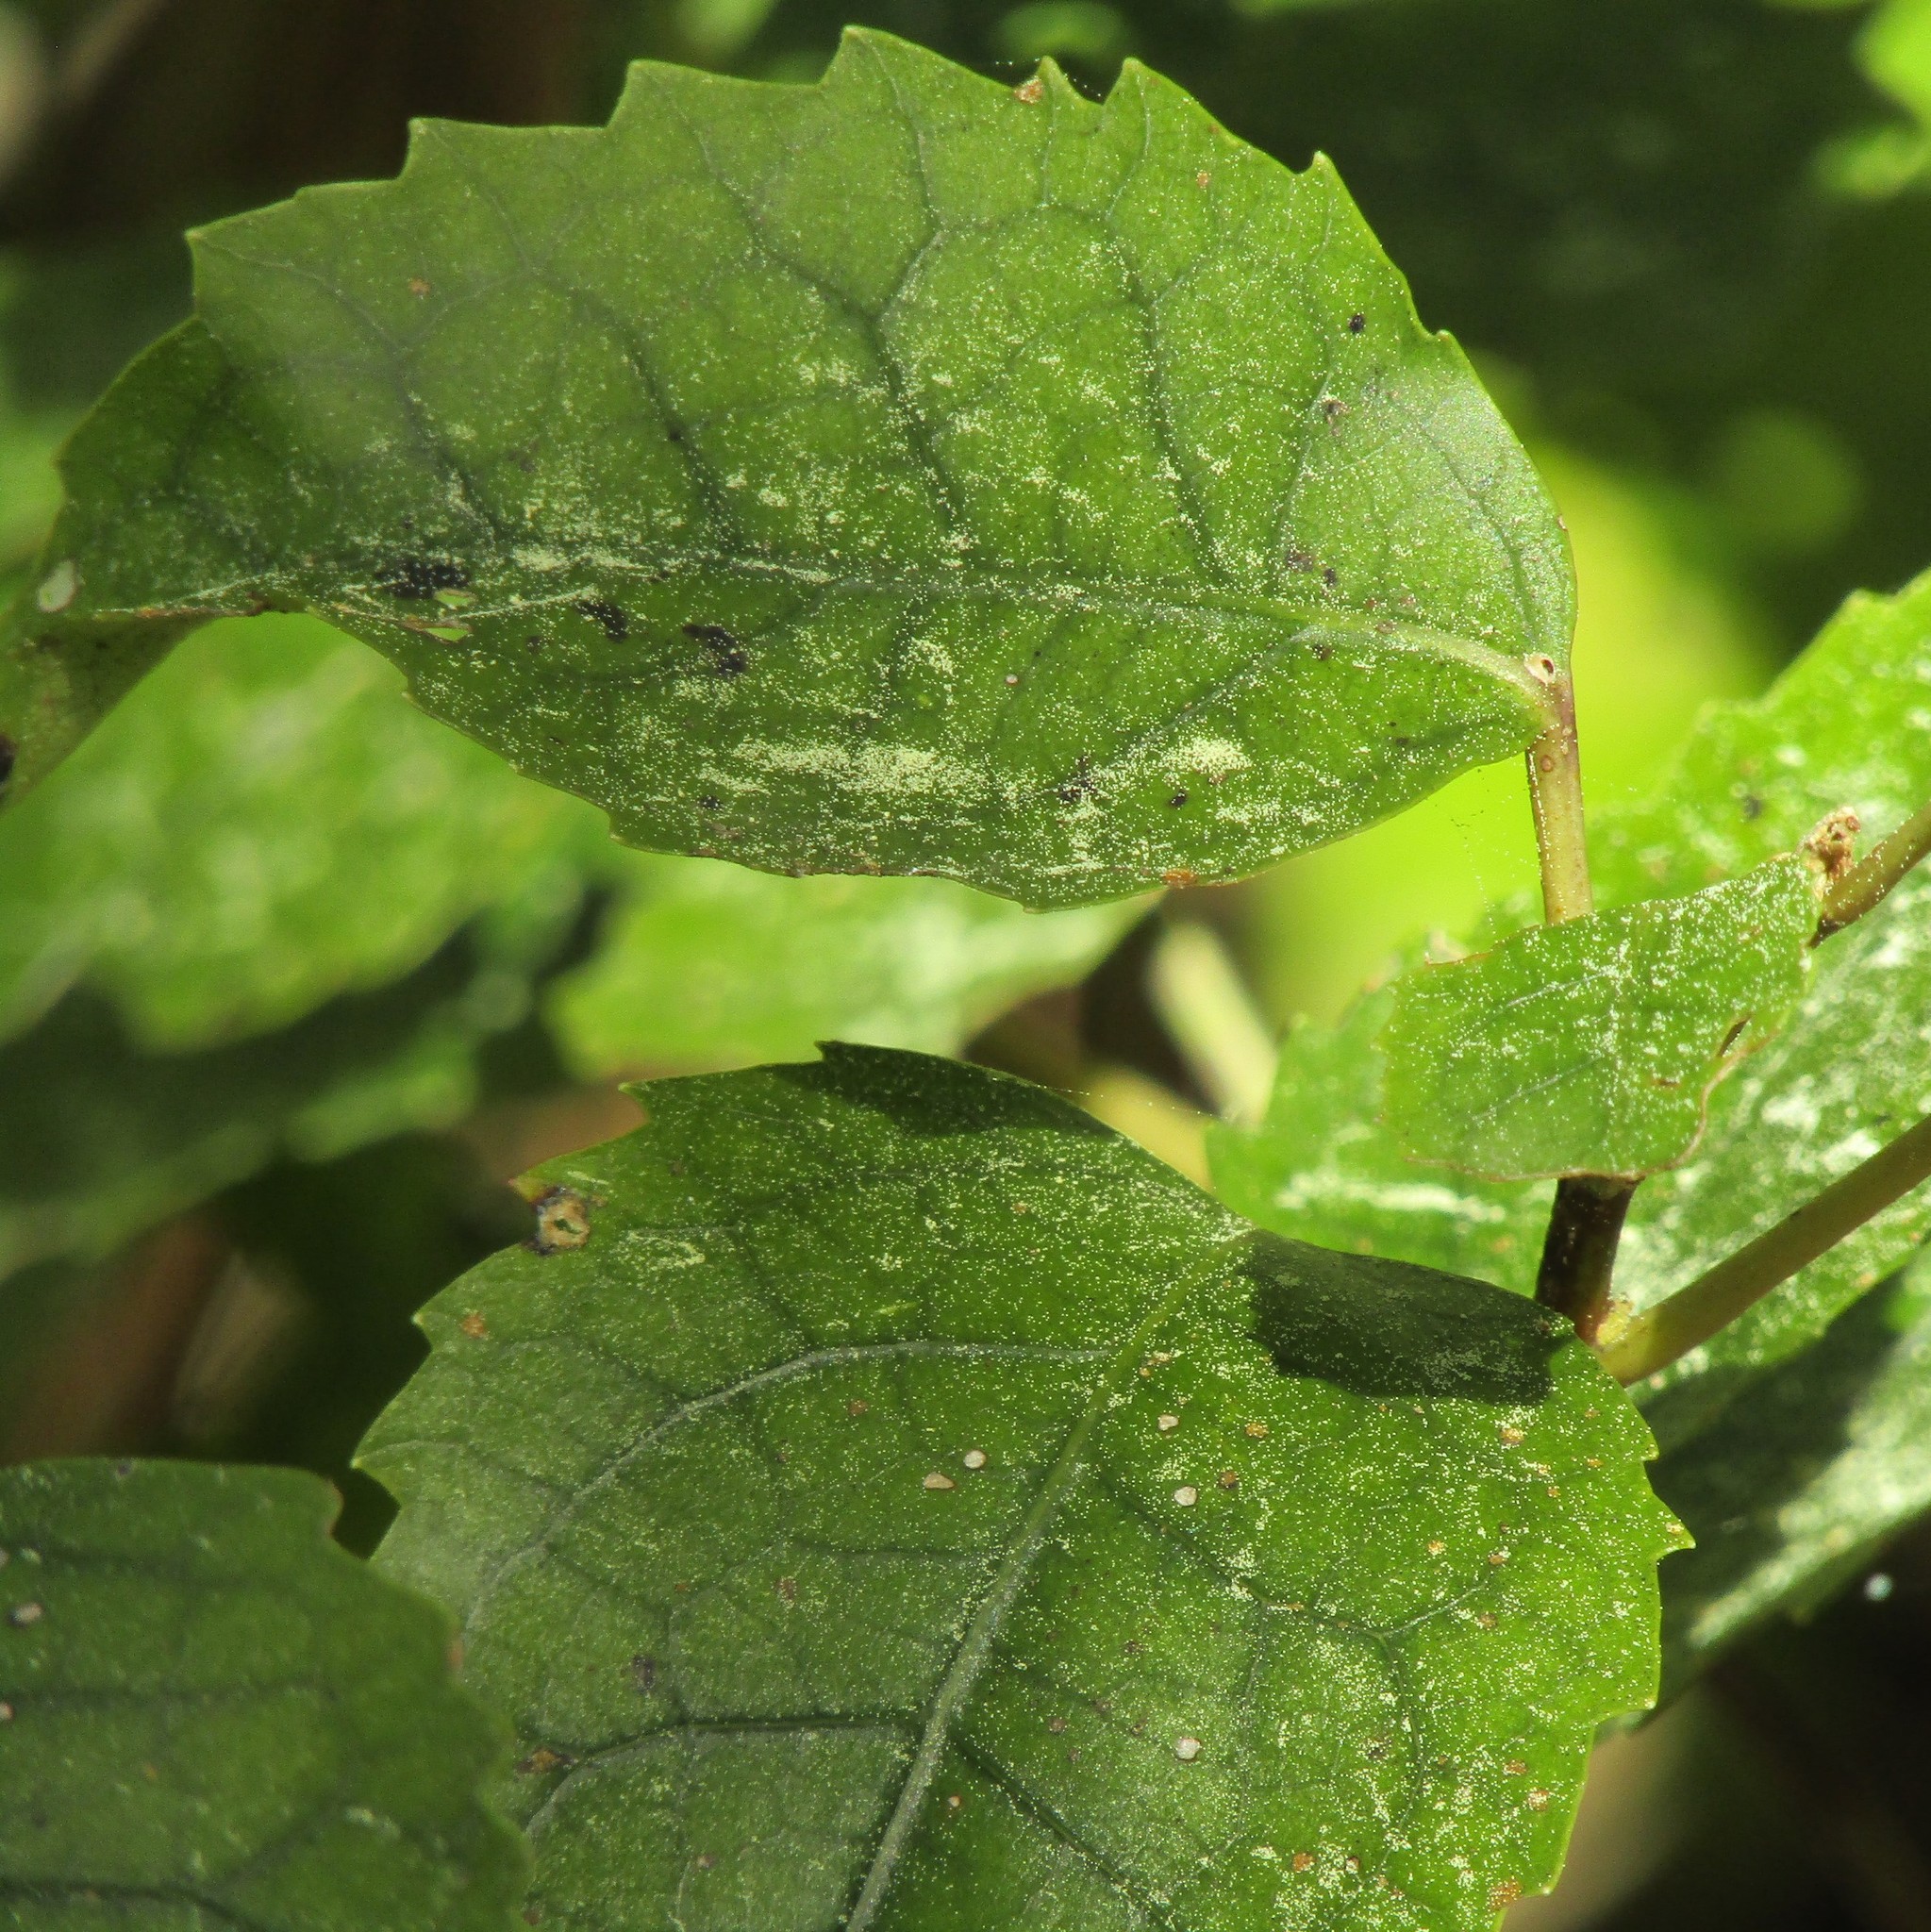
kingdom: Plantae
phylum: Tracheophyta
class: Magnoliopsida
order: Malvales
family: Malvaceae
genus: Hoheria
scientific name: Hoheria populnea
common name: Lacebark
